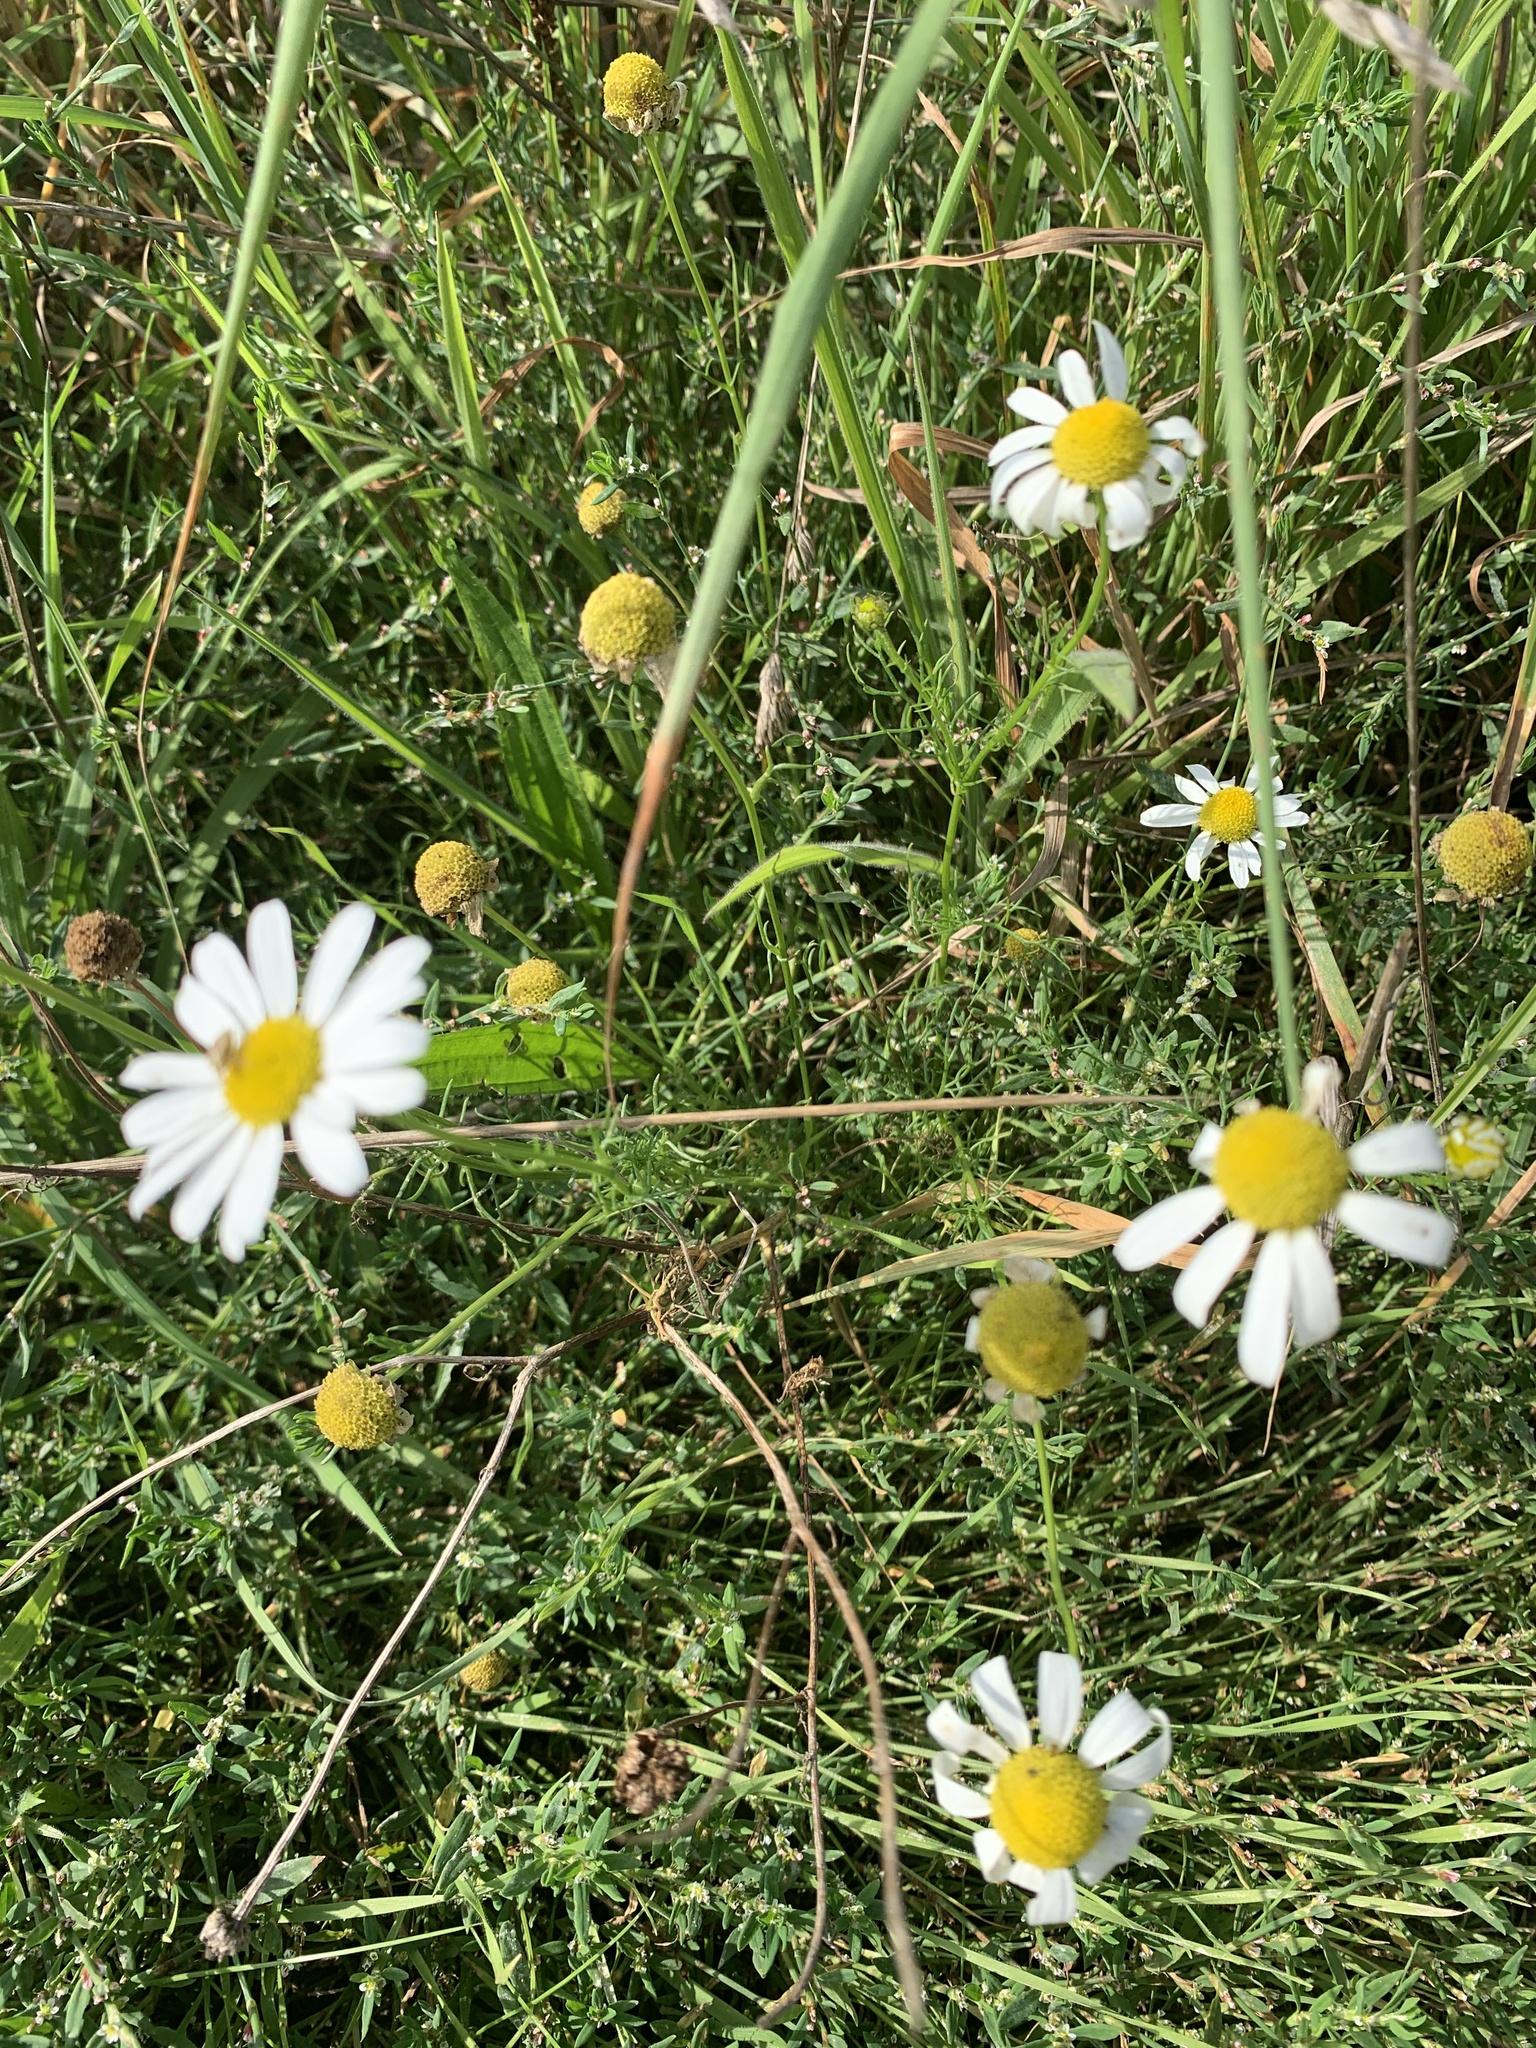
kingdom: Plantae
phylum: Tracheophyta
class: Magnoliopsida
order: Asterales
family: Asteraceae
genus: Tripleurospermum
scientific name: Tripleurospermum inodorum
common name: Scentless mayweed
